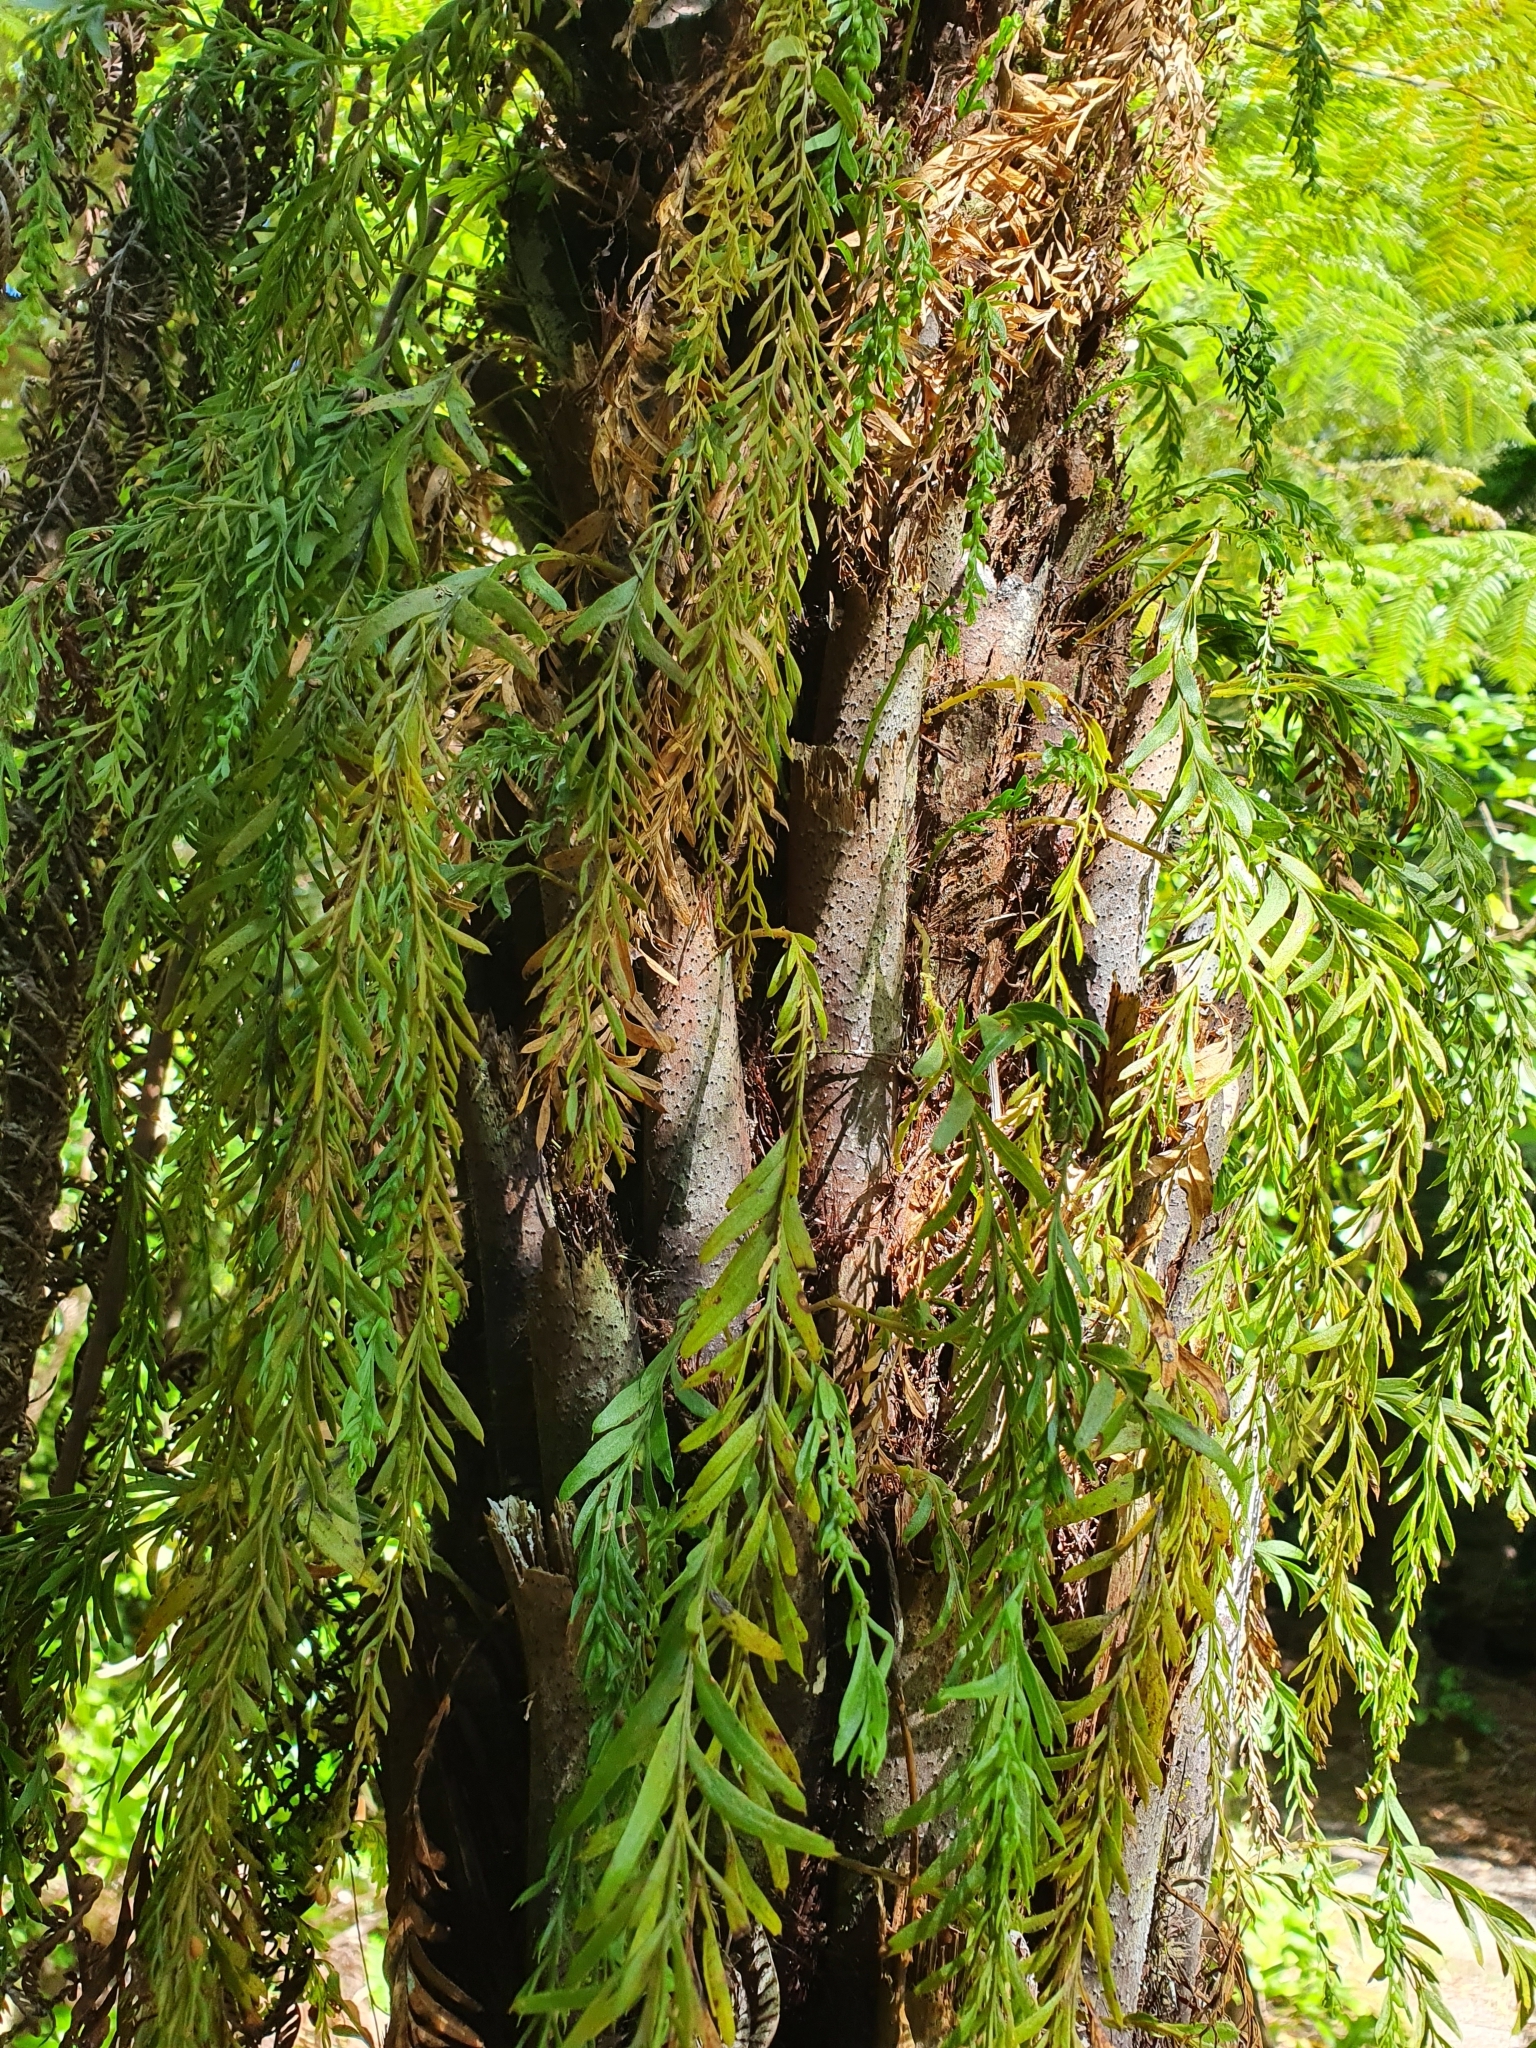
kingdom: Plantae
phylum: Tracheophyta
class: Polypodiopsida
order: Psilotales
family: Psilotaceae
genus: Tmesipteris
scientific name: Tmesipteris elongata
